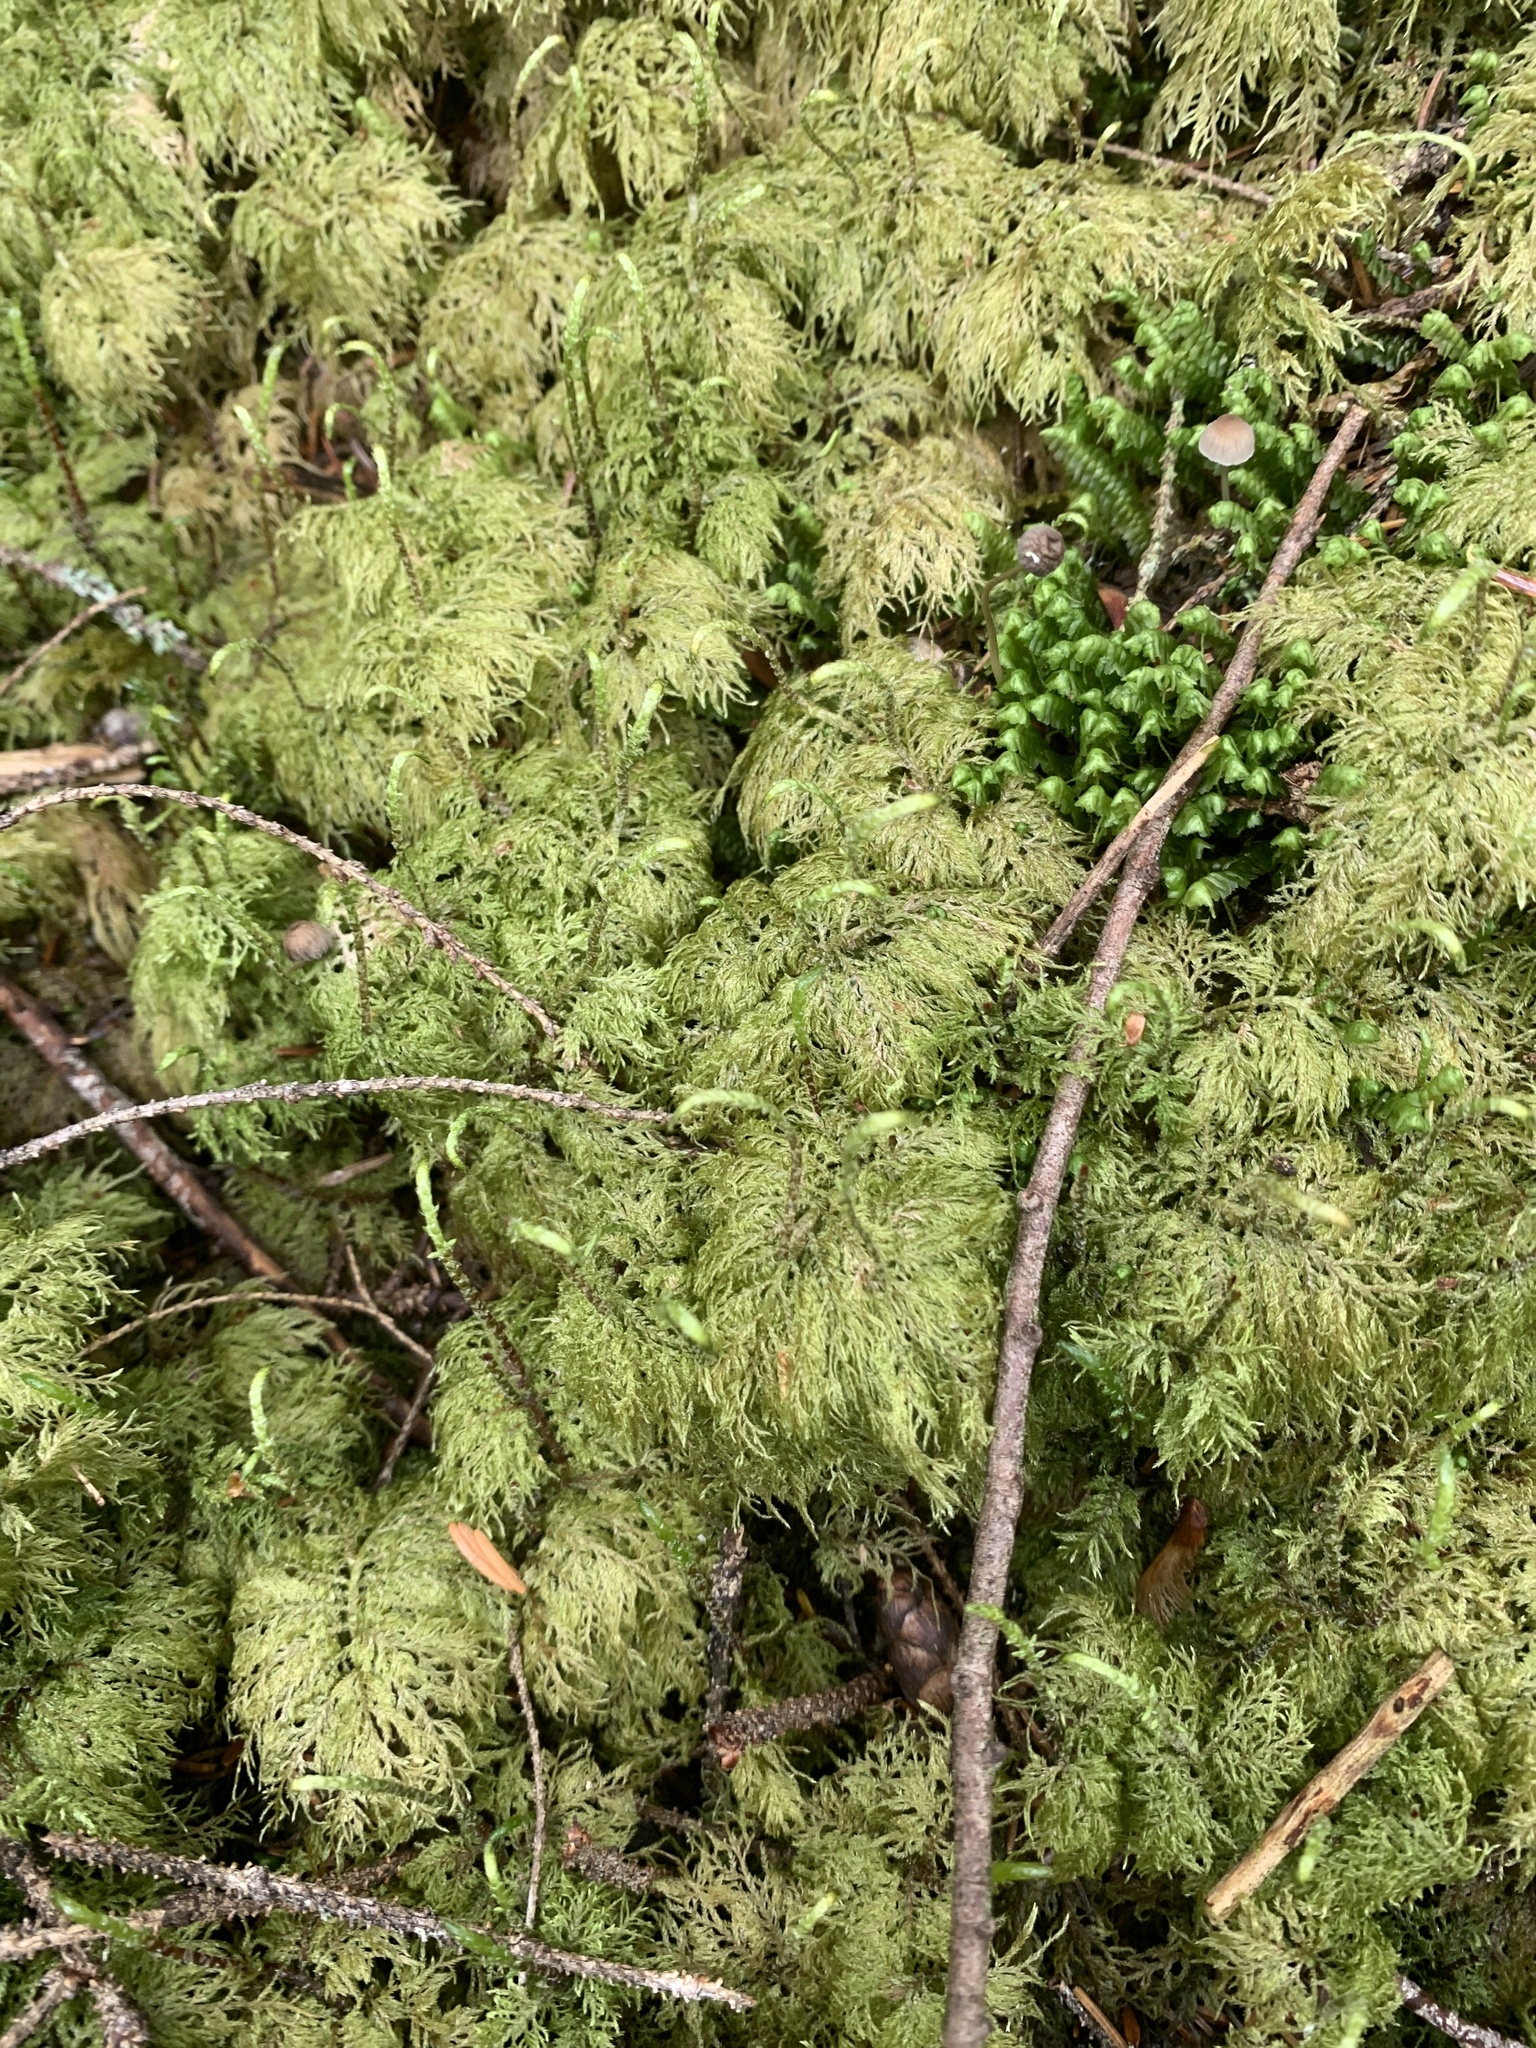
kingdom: Plantae
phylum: Bryophyta
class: Bryopsida
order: Hypnales
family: Hylocomiaceae
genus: Hylocomium
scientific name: Hylocomium splendens
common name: Stairstep moss
